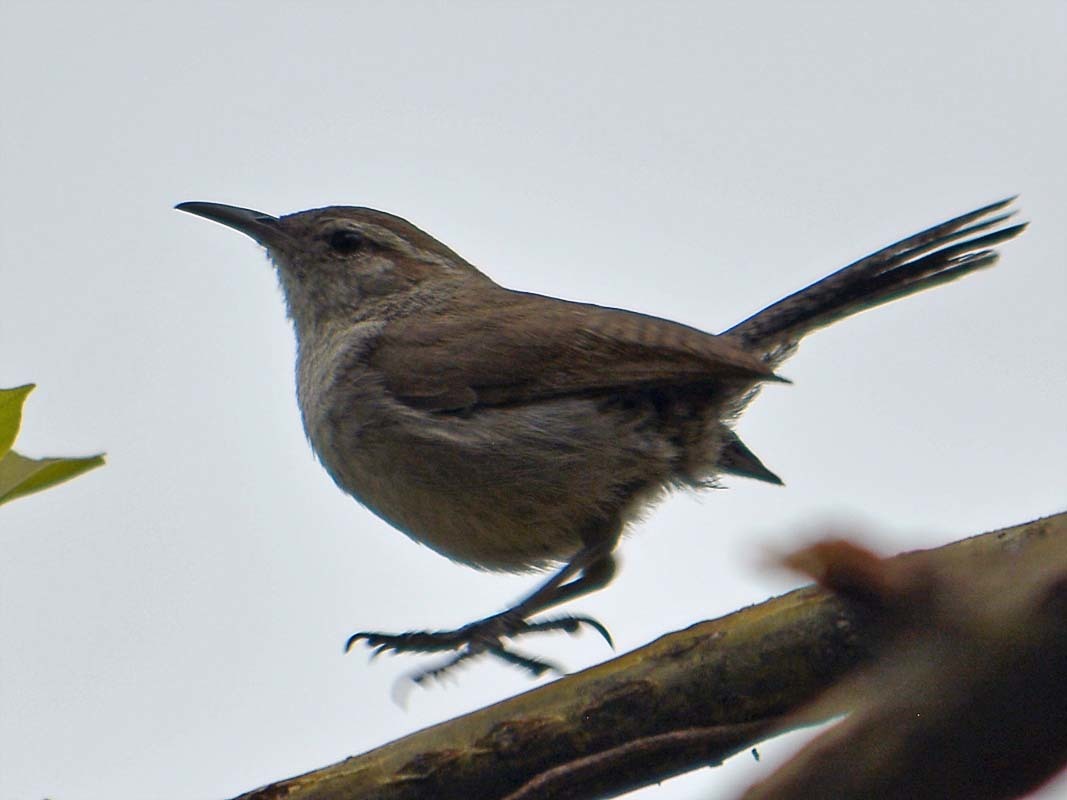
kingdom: Animalia
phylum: Chordata
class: Aves
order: Passeriformes
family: Troglodytidae
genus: Thryomanes
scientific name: Thryomanes bewickii
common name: Bewick's wren
